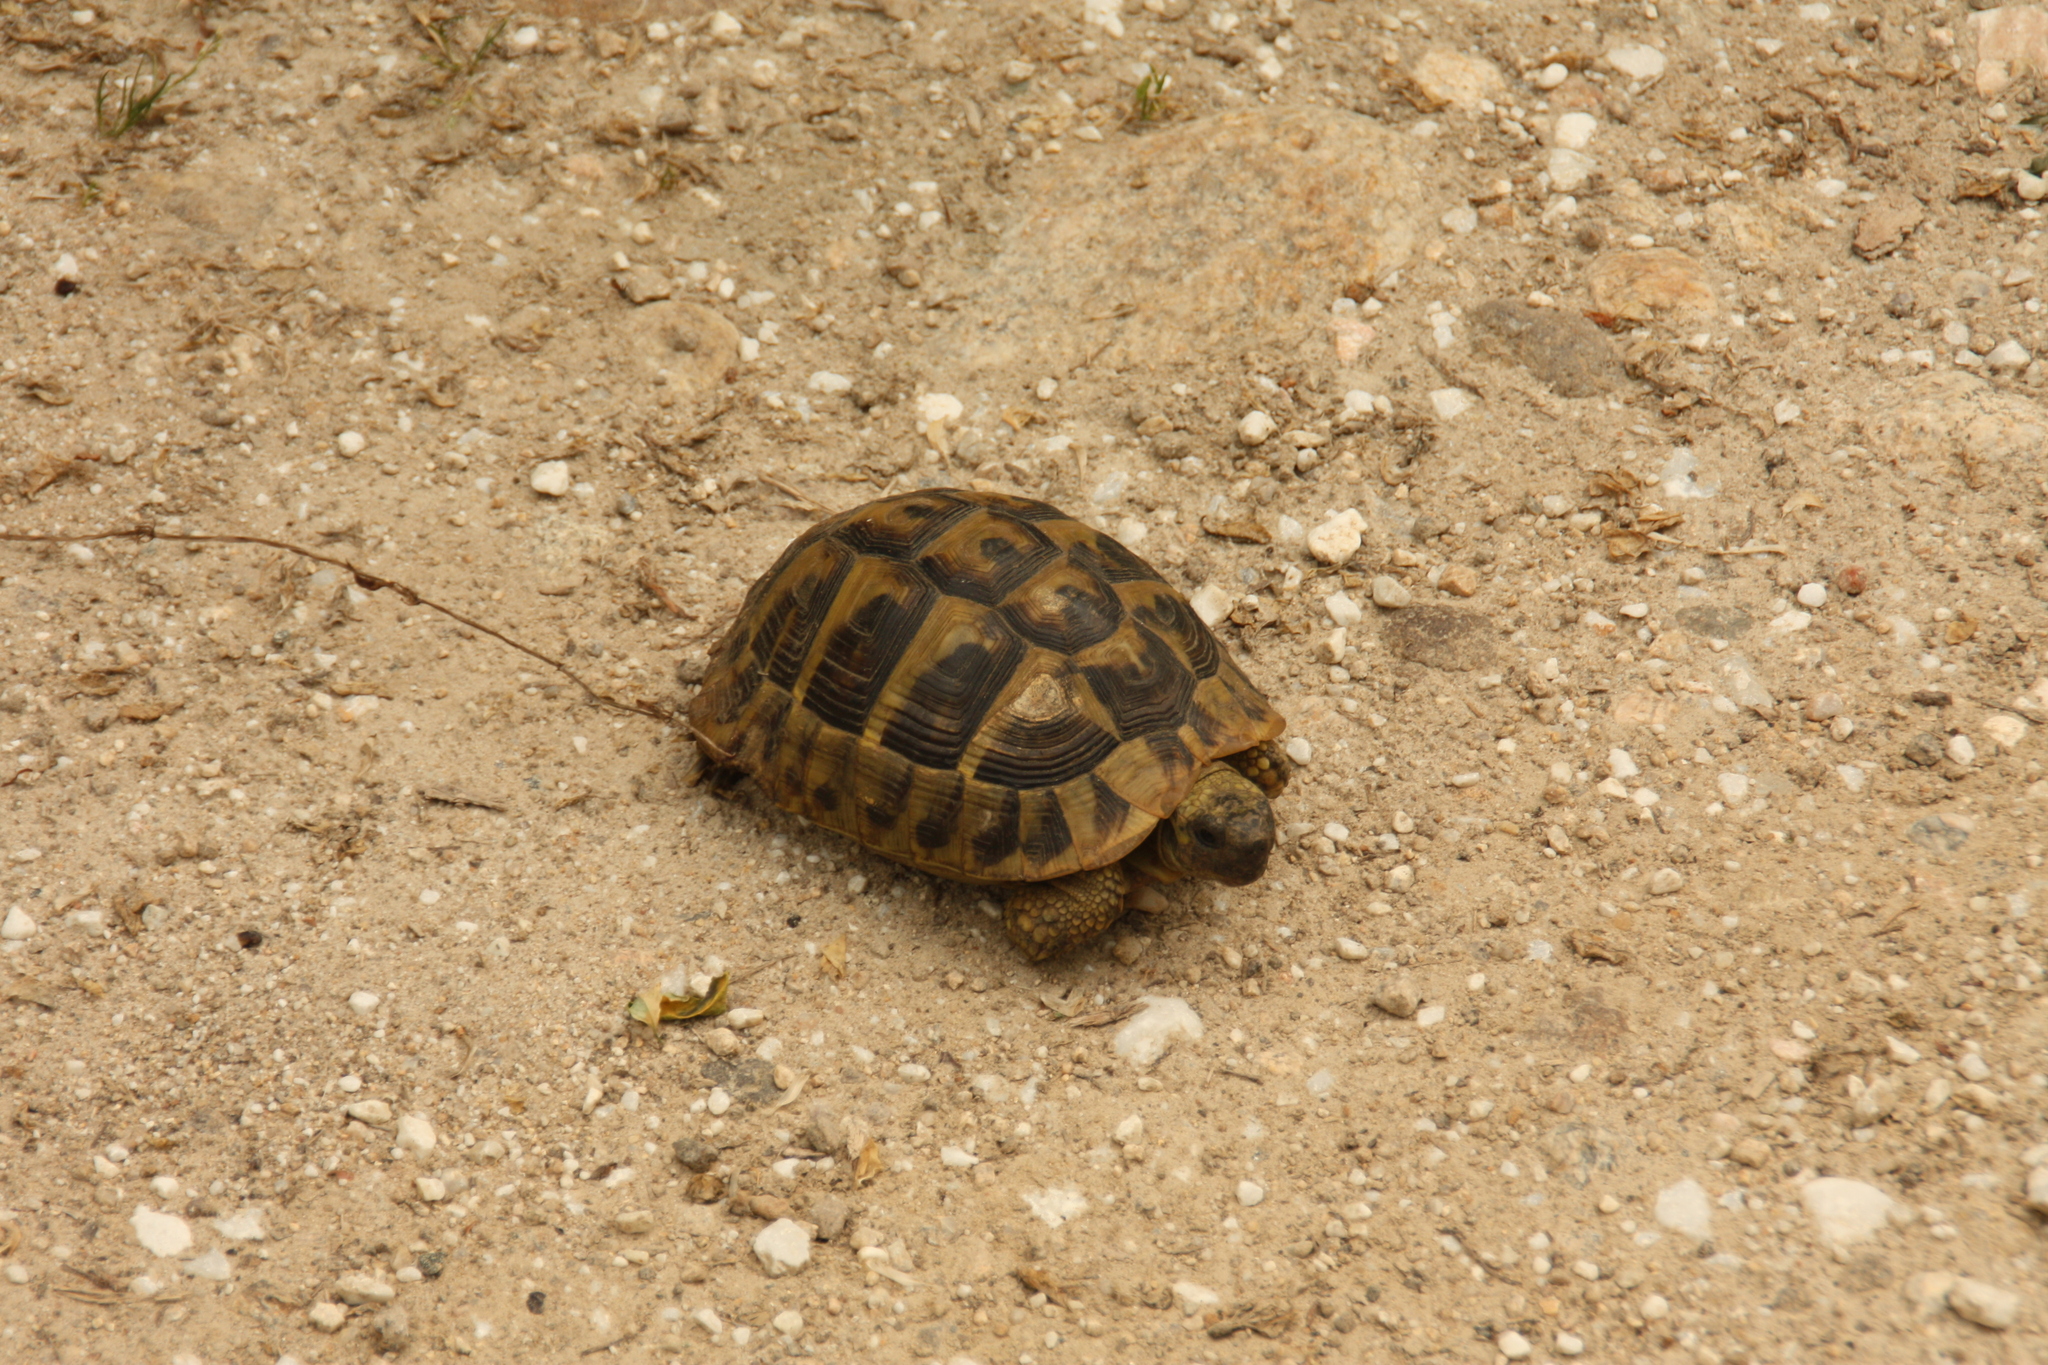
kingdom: Animalia
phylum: Chordata
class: Testudines
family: Testudinidae
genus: Testudo
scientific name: Testudo hermanni
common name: Hermann's tortoise
